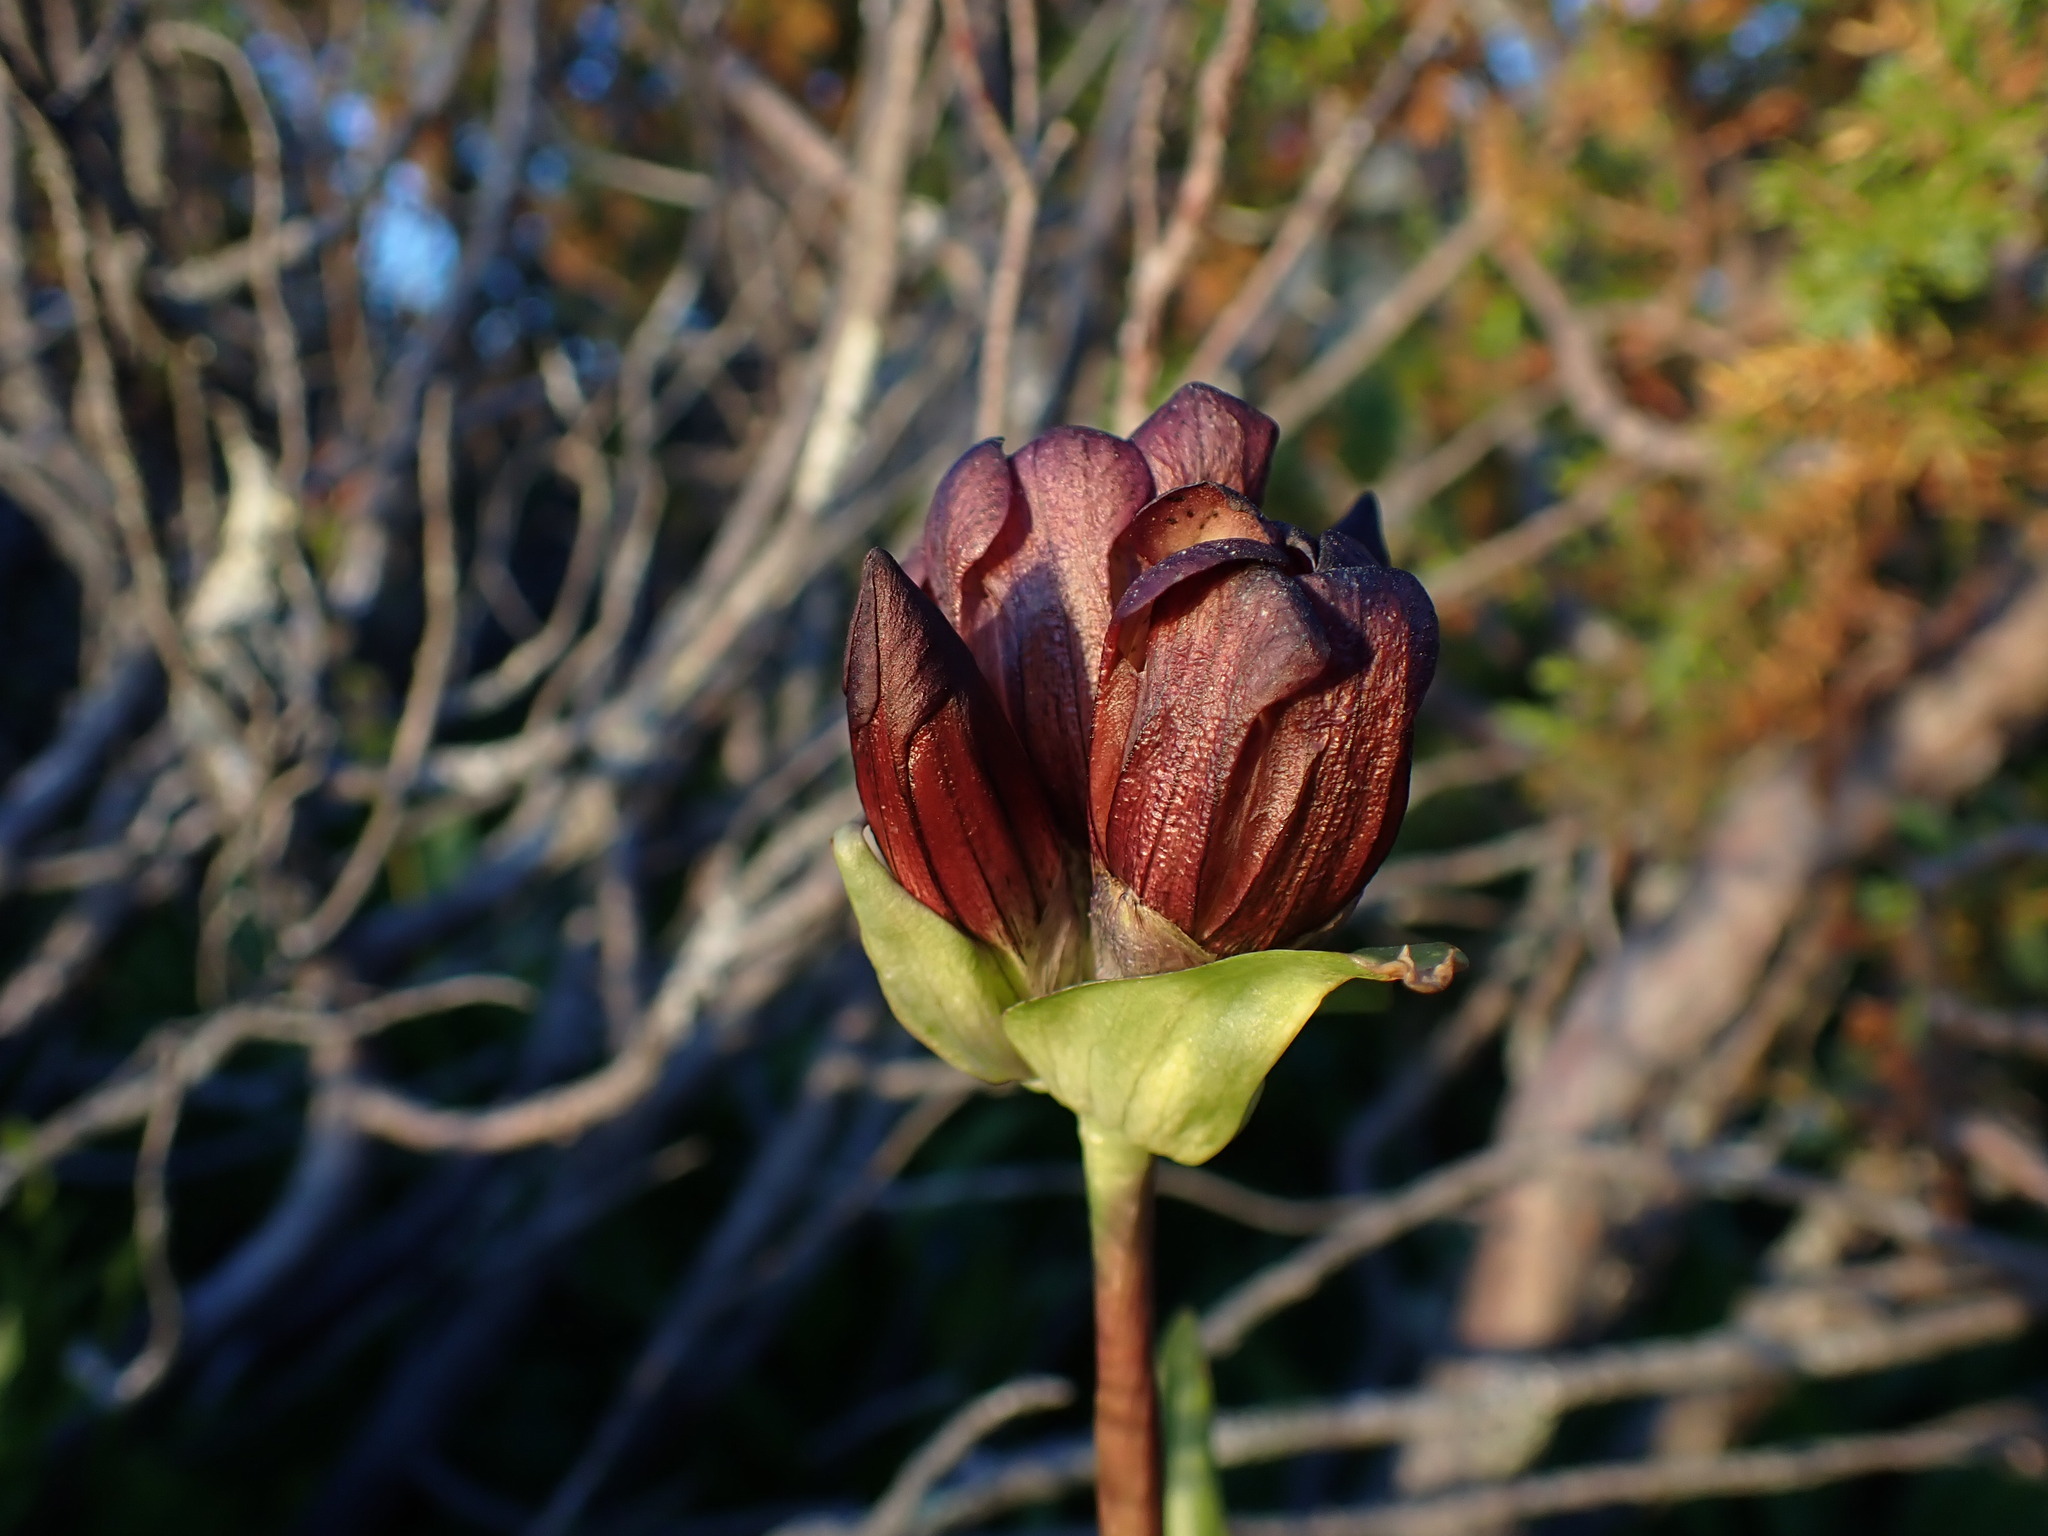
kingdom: Plantae
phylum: Tracheophyta
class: Magnoliopsida
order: Gentianales
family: Gentianaceae
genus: Gentiana
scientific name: Gentiana purpurea
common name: Purple gentian
